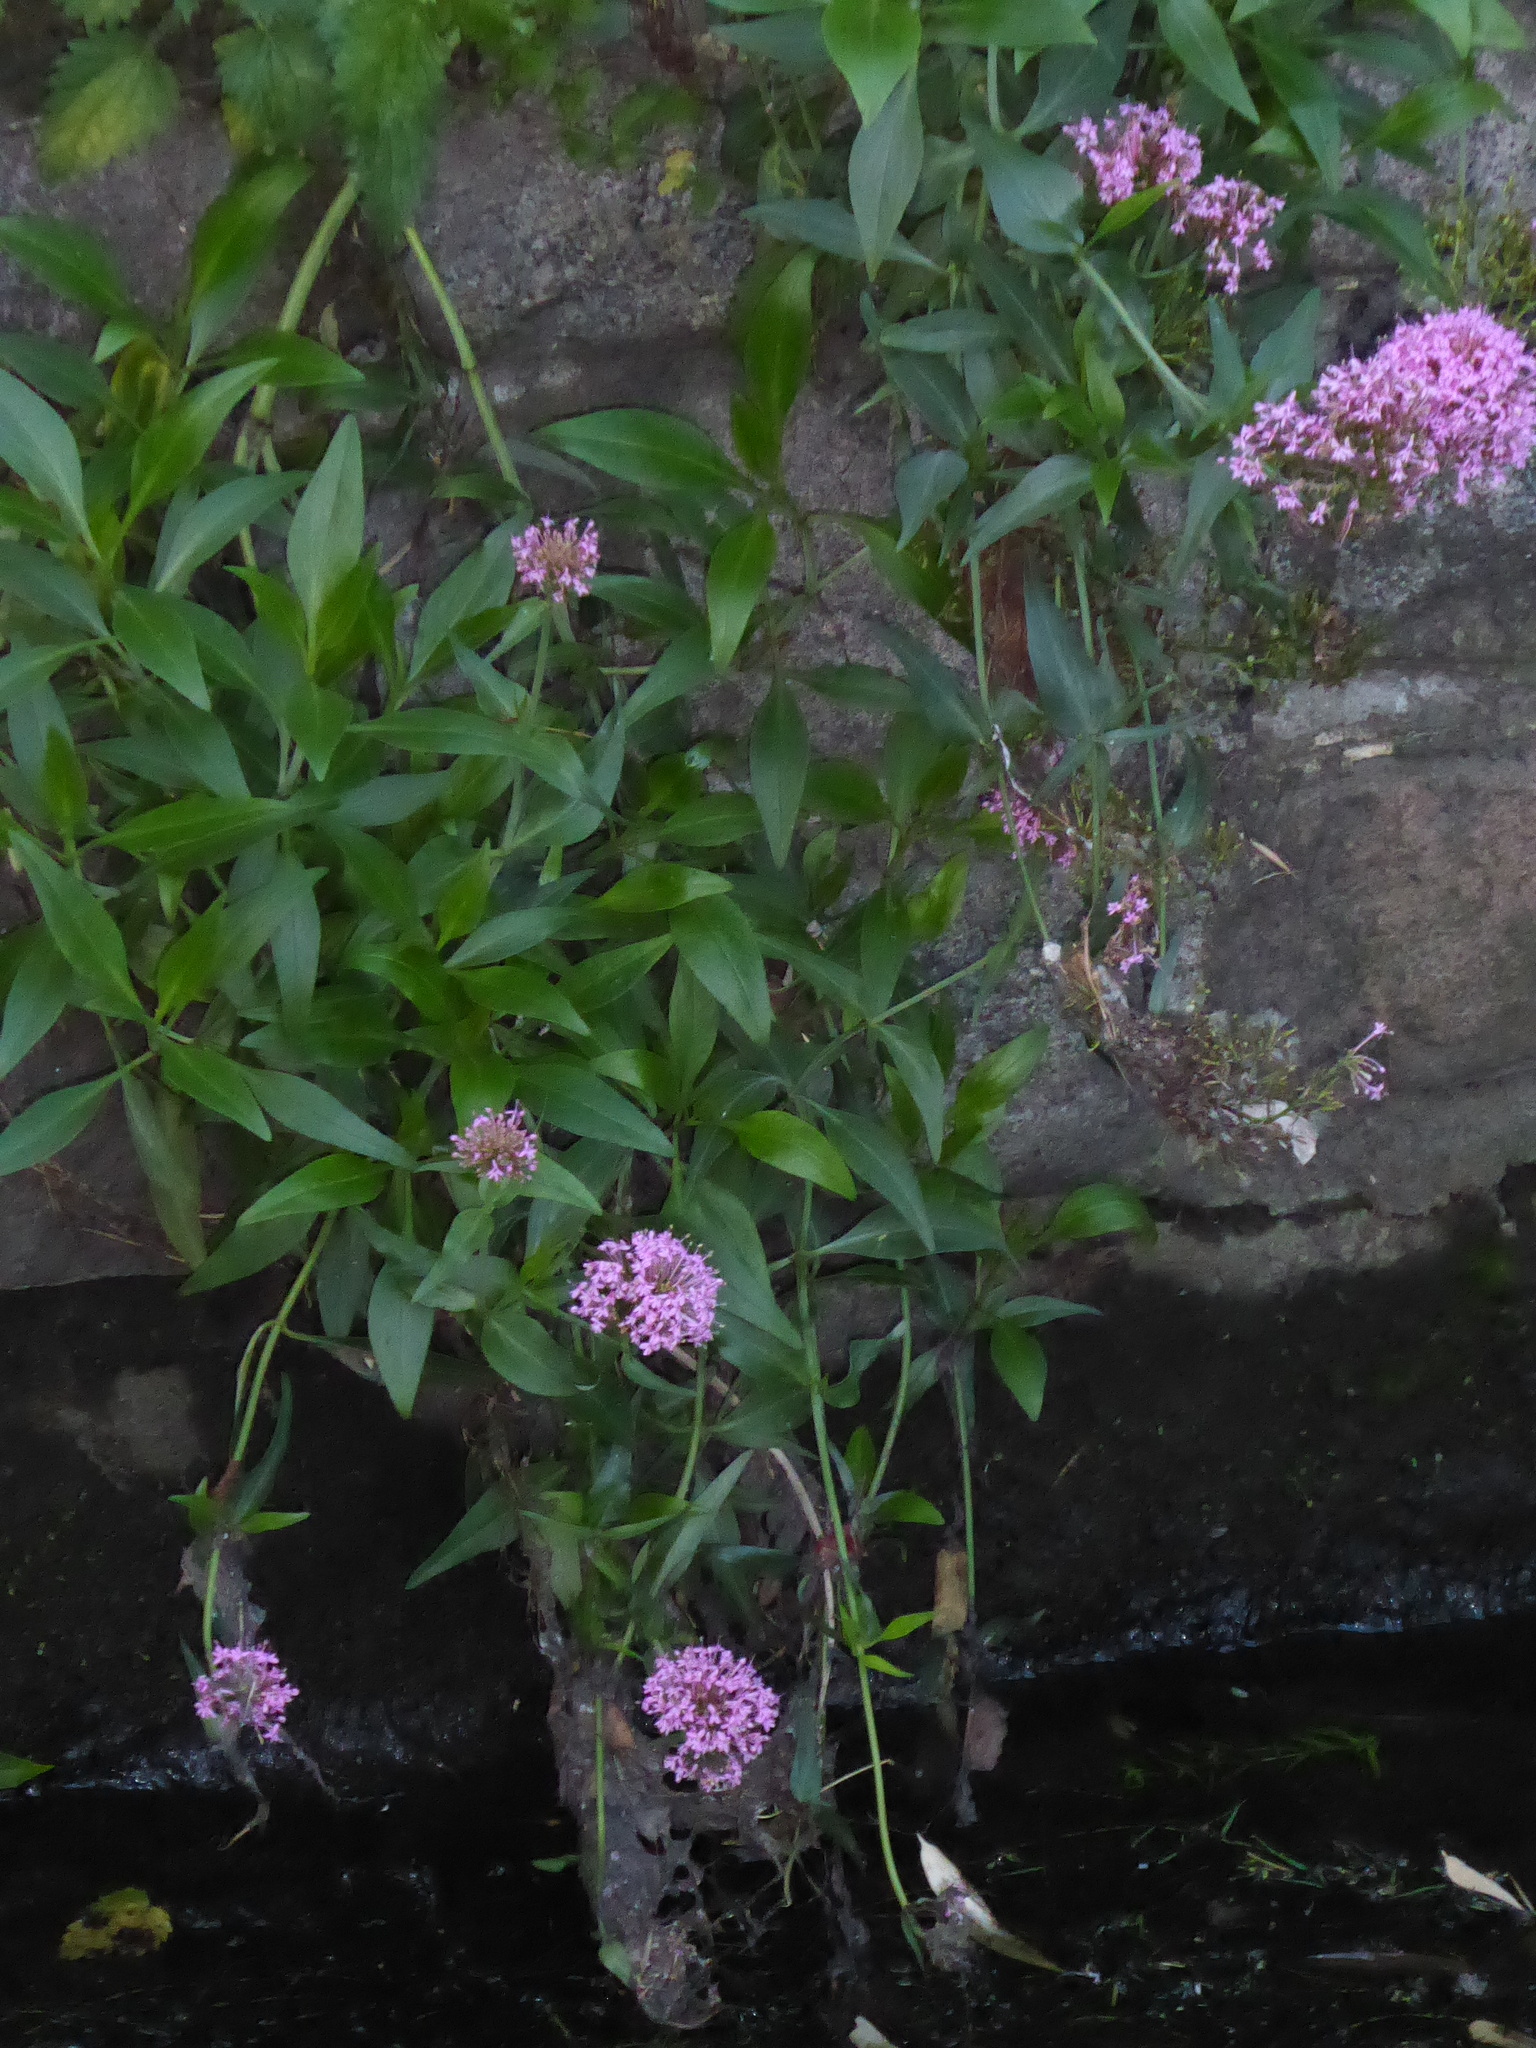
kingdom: Plantae
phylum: Tracheophyta
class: Magnoliopsida
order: Dipsacales
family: Caprifoliaceae
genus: Centranthus
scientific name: Centranthus ruber
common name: Red valerian
